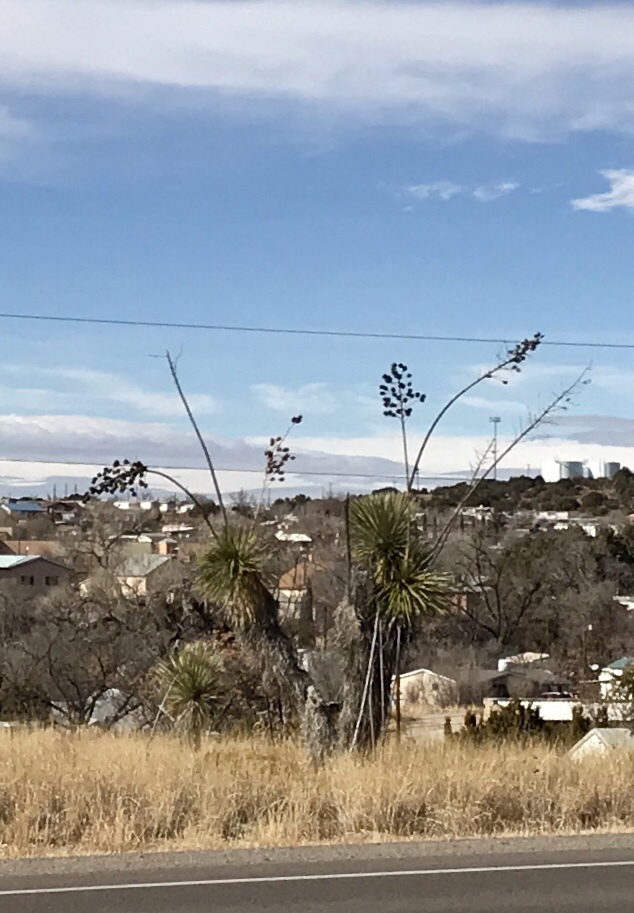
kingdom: Plantae
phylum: Tracheophyta
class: Liliopsida
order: Asparagales
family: Asparagaceae
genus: Yucca
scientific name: Yucca elata
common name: Palmella
